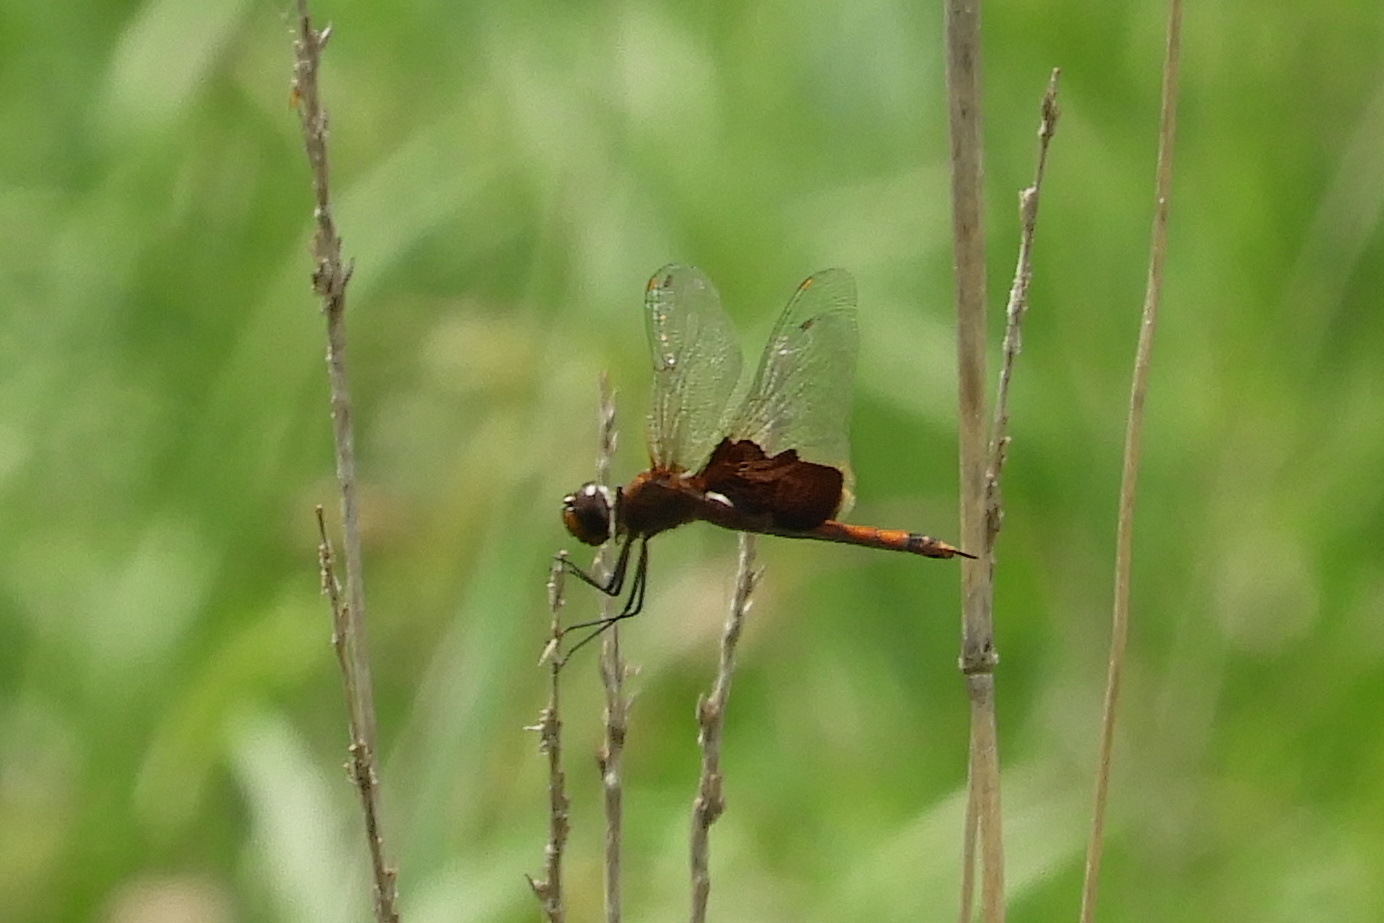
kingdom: Animalia
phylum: Arthropoda
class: Insecta
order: Odonata
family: Libellulidae
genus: Tramea
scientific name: Tramea carolina
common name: Carolina saddlebags
